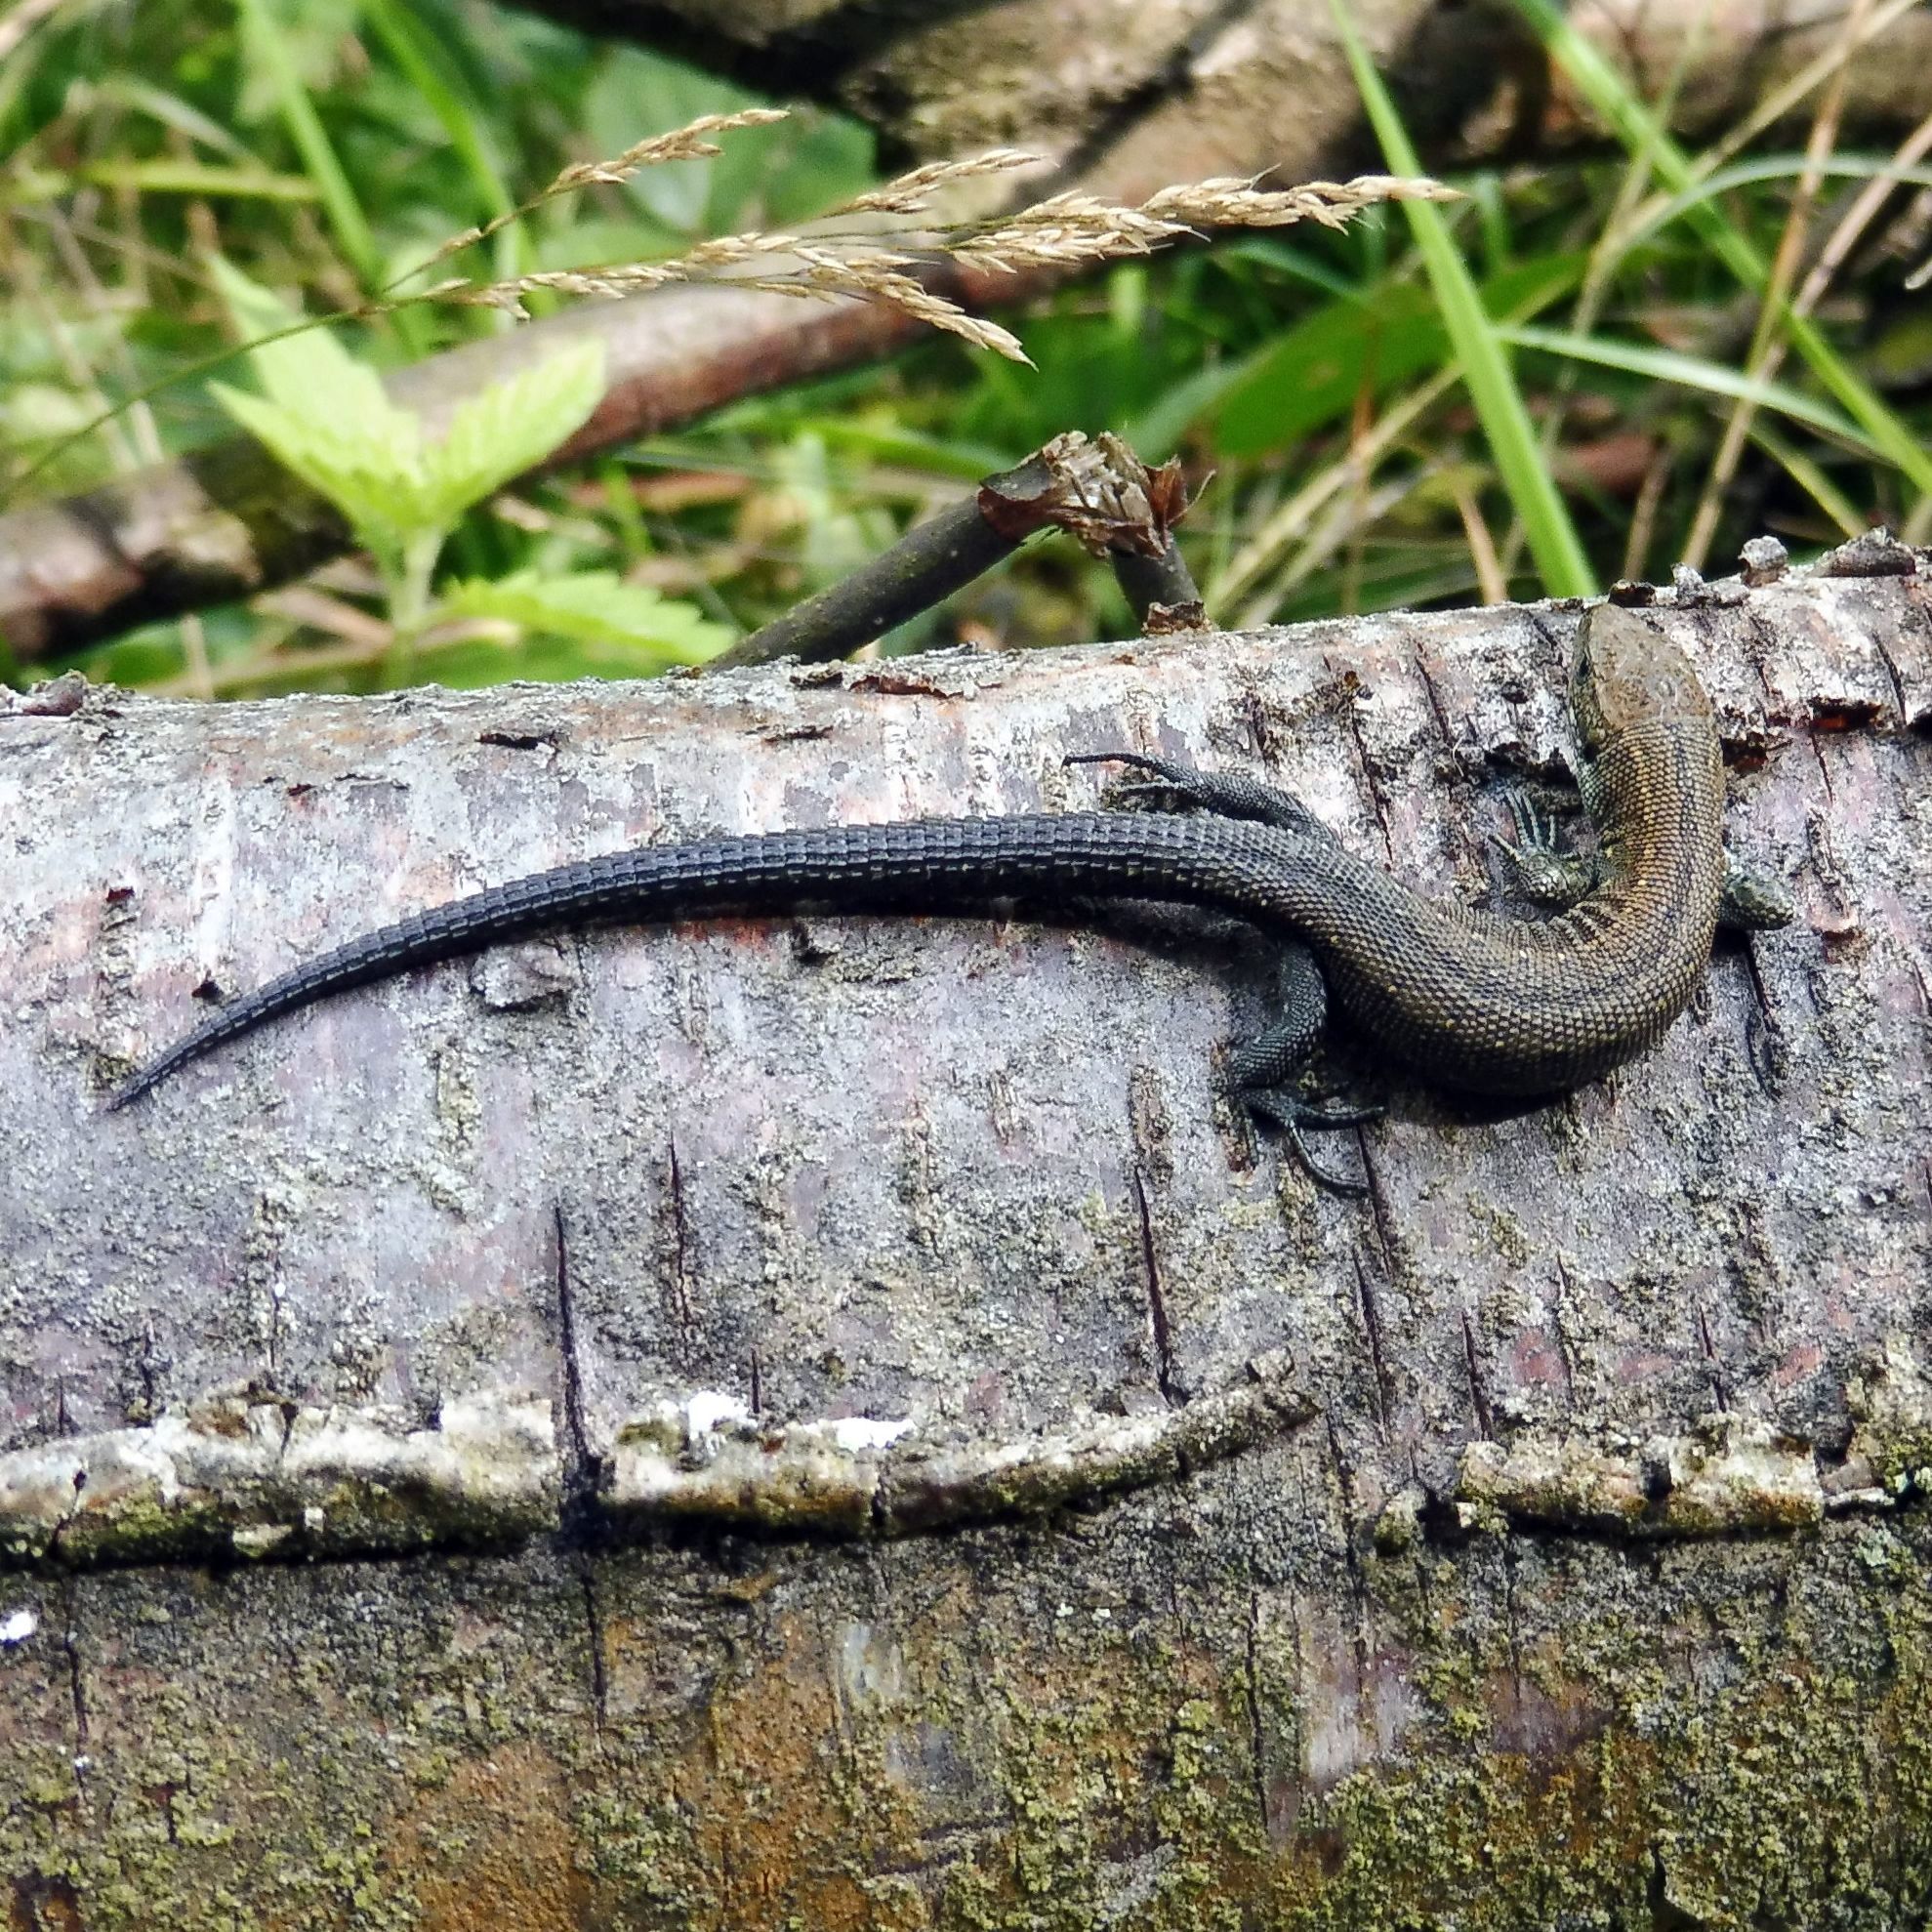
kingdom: Animalia
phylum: Chordata
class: Squamata
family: Lacertidae
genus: Zootoca
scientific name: Zootoca vivipara
